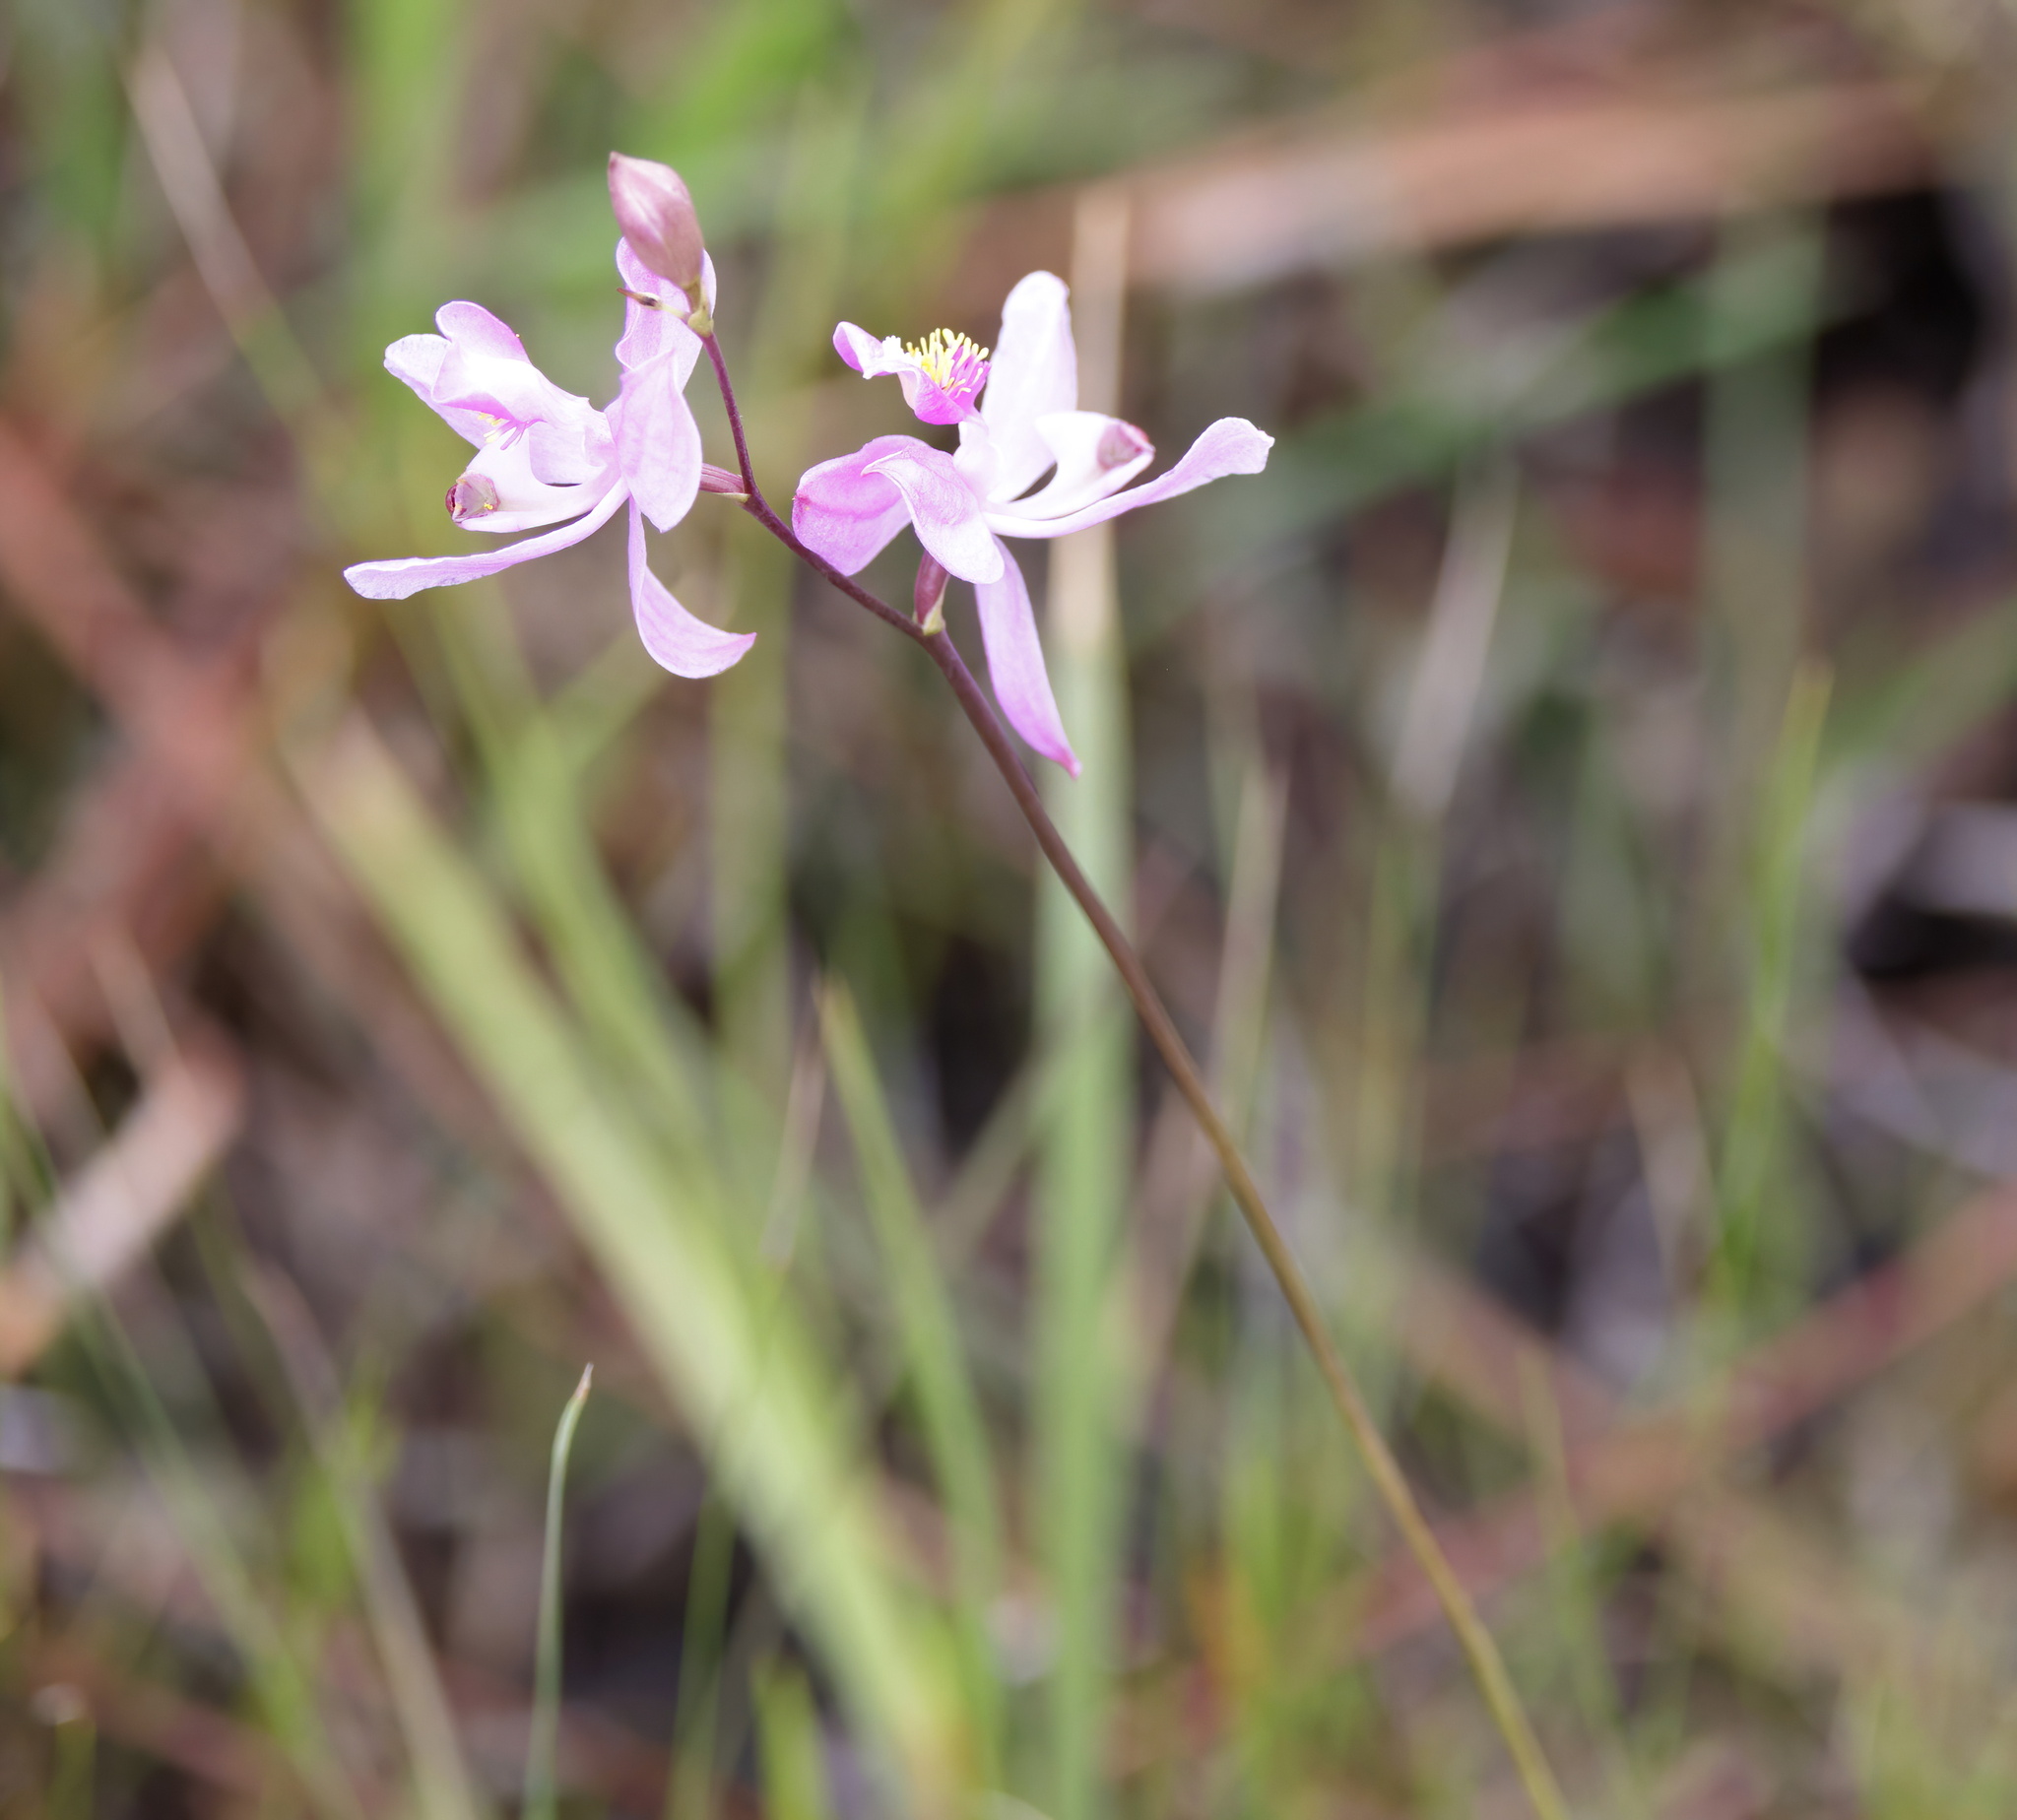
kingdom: Plantae
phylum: Tracheophyta
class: Liliopsida
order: Asparagales
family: Orchidaceae
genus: Calopogon
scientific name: Calopogon pallidus
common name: Pale grasspink
